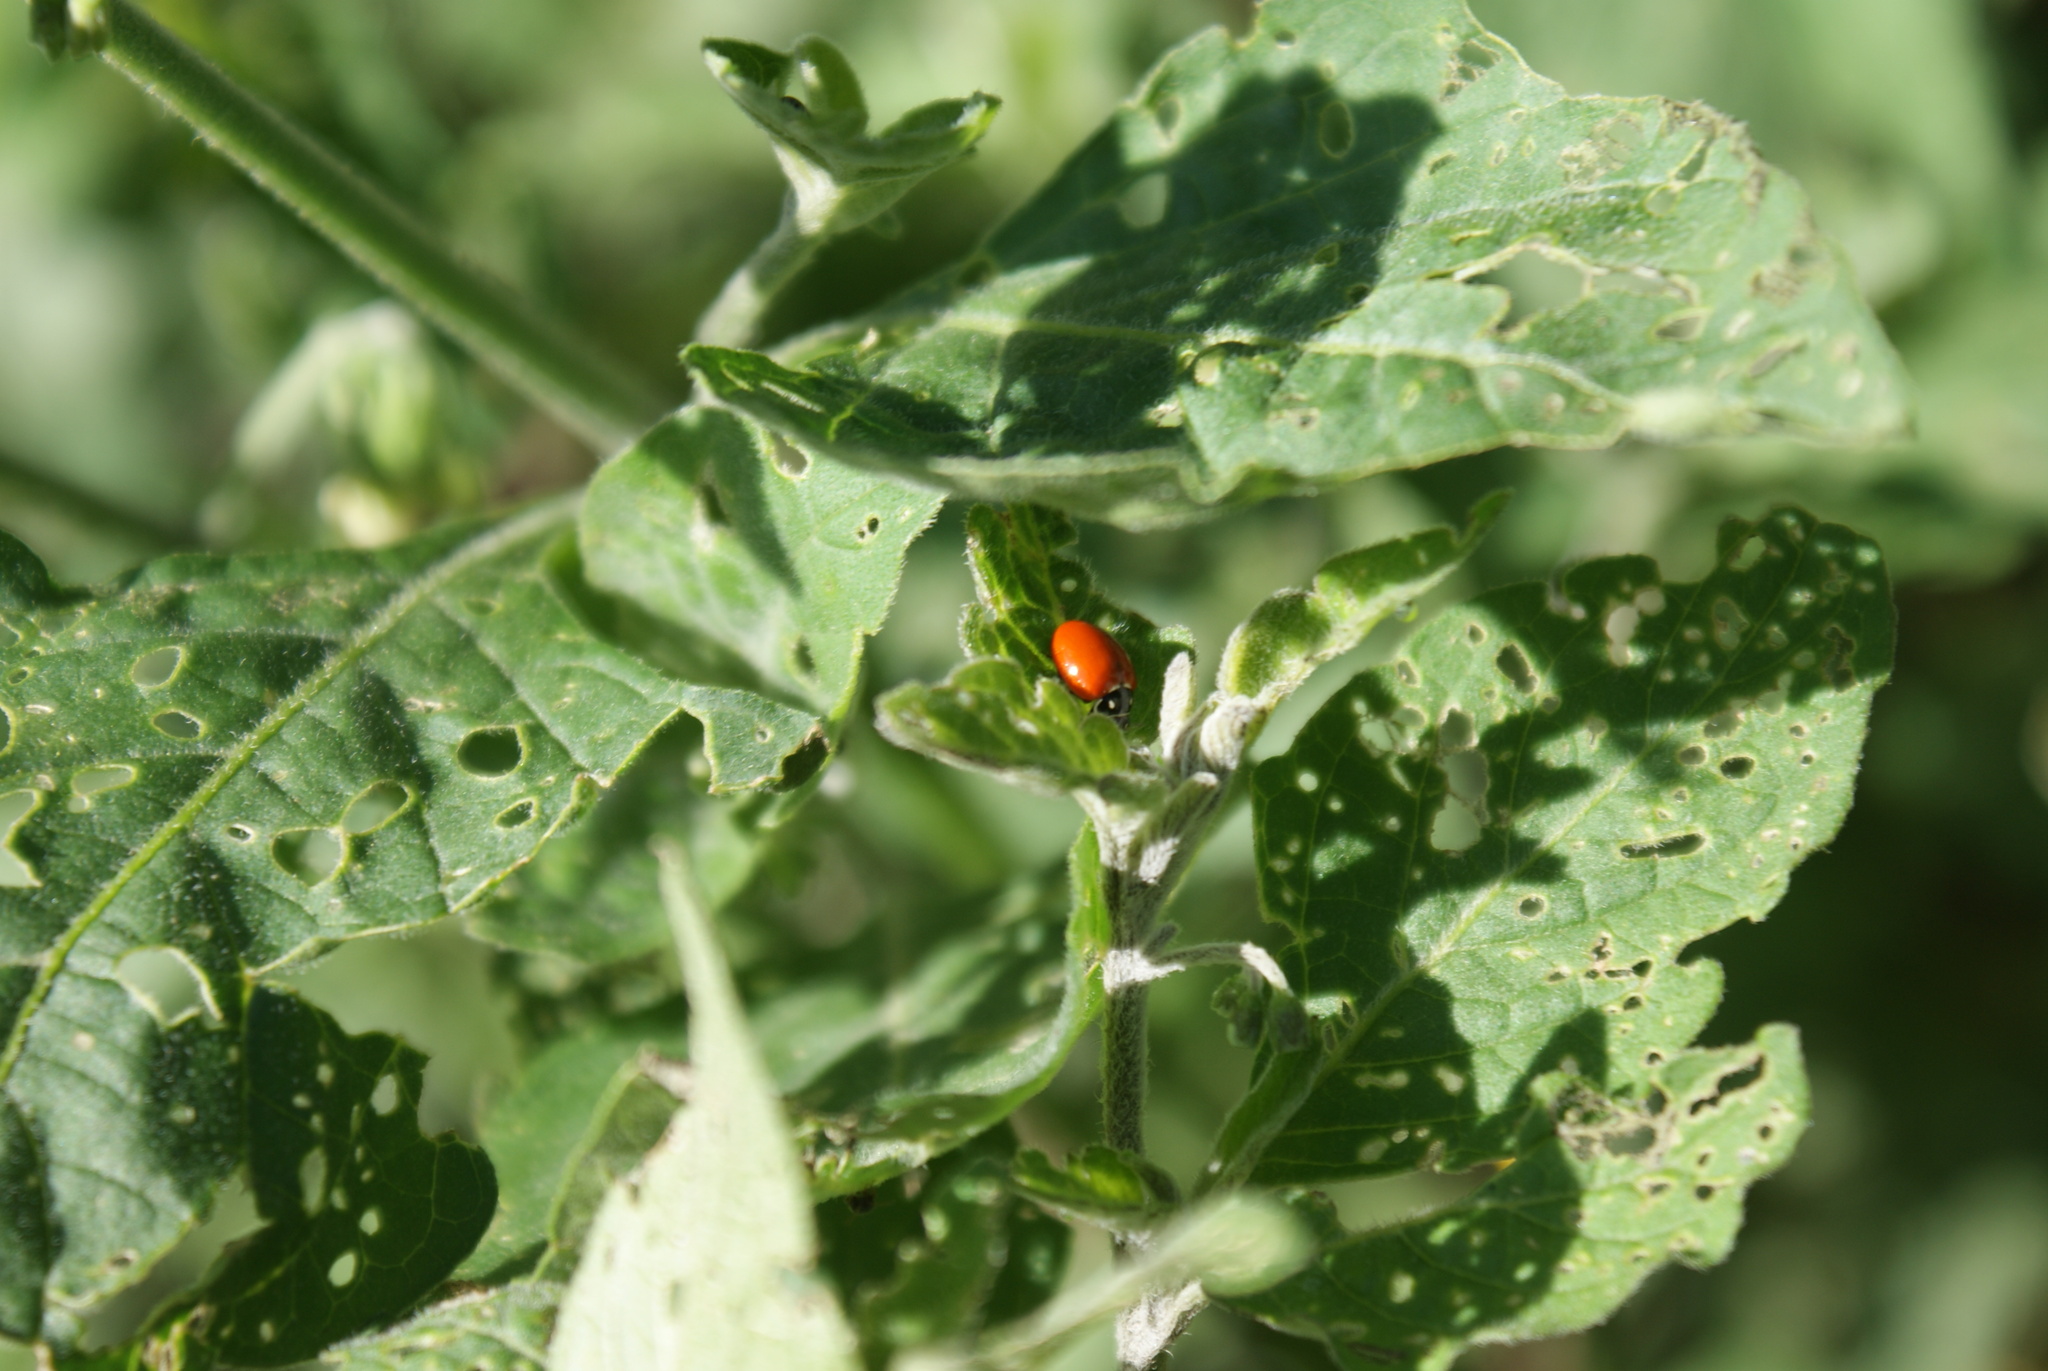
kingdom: Animalia
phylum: Arthropoda
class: Insecta
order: Coleoptera
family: Coccinellidae
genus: Cycloneda
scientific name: Cycloneda emarginata
